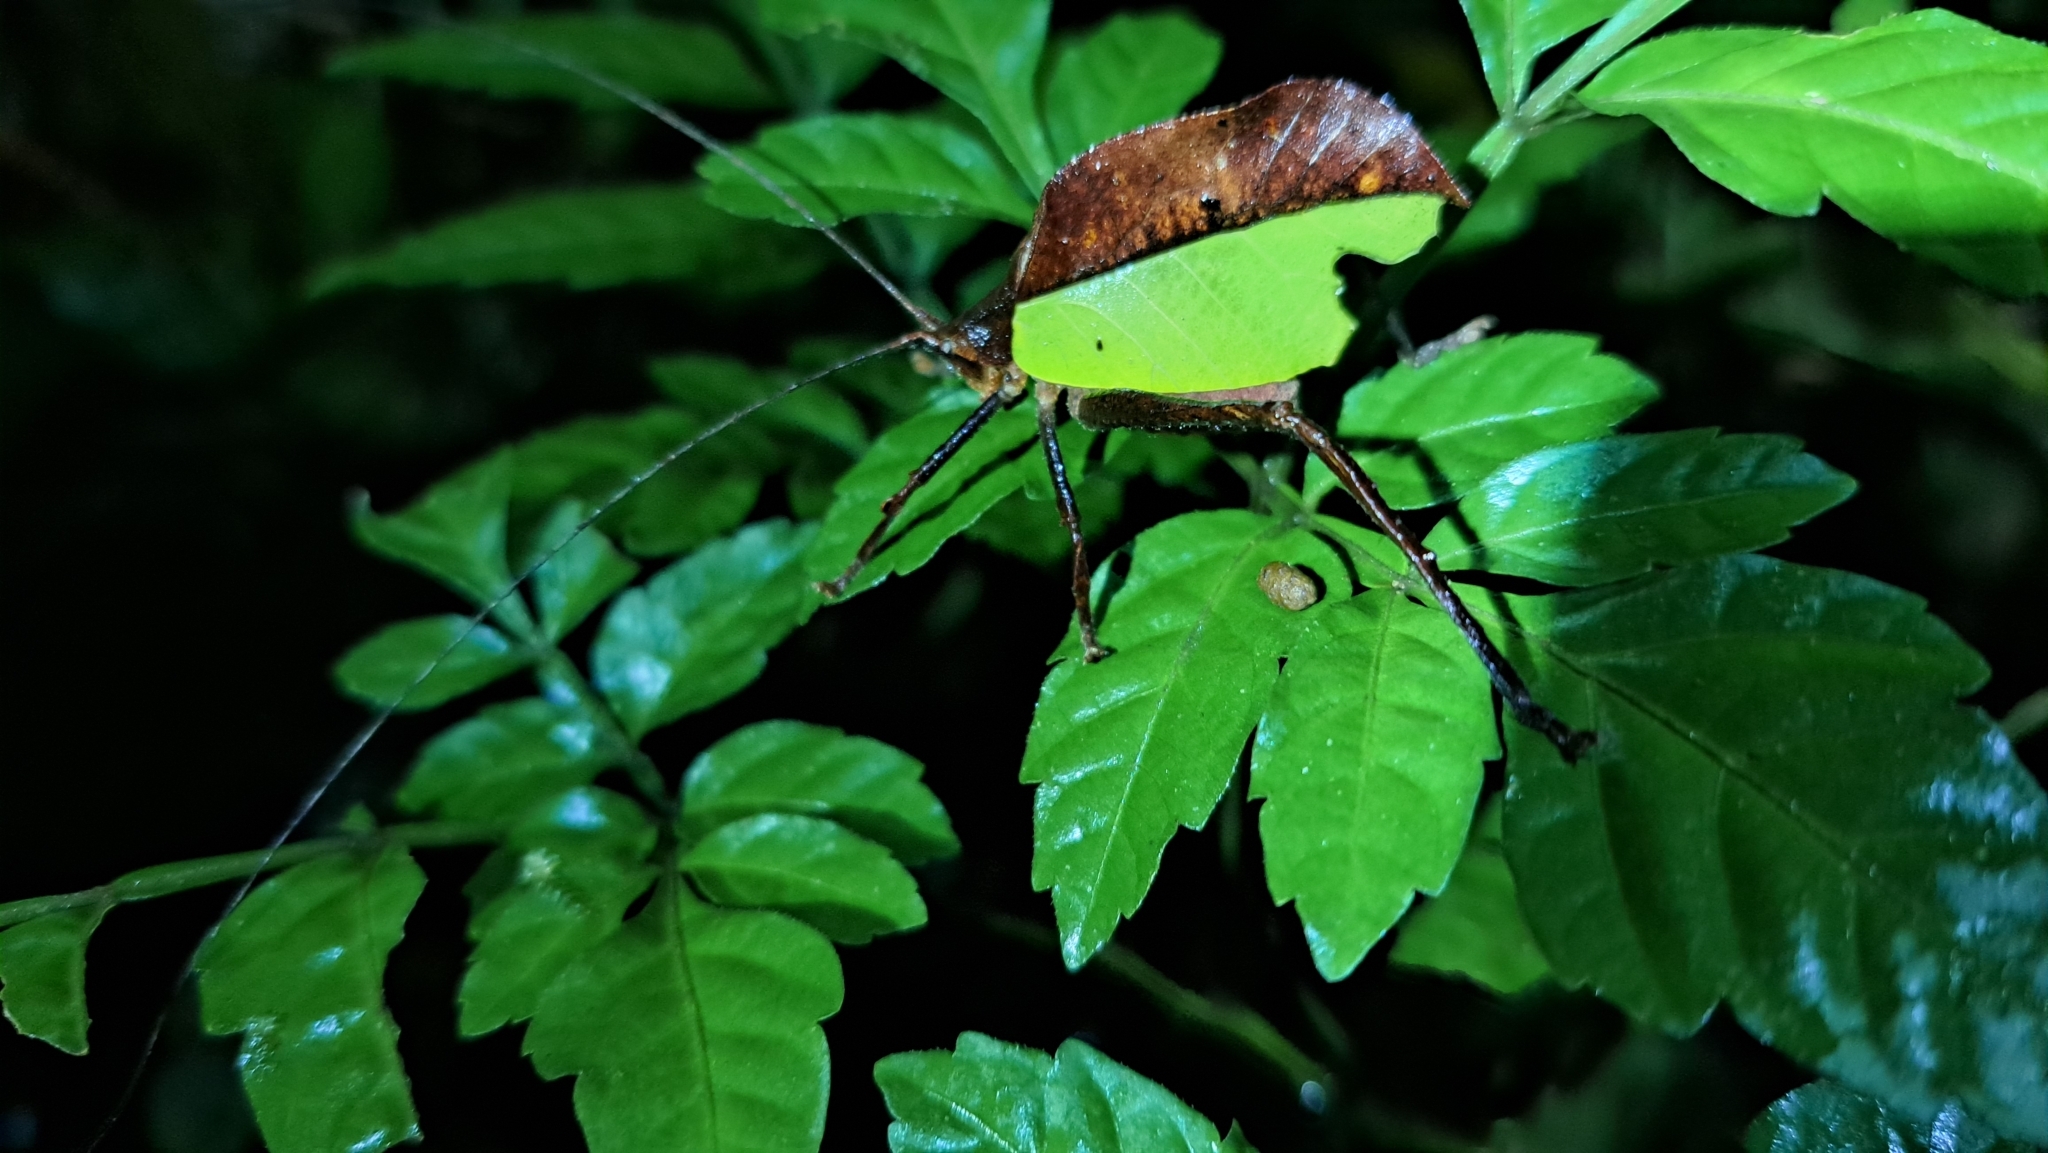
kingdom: Animalia
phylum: Arthropoda
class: Insecta
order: Orthoptera
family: Tettigoniidae
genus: Mimetica
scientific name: Mimetica incisa
